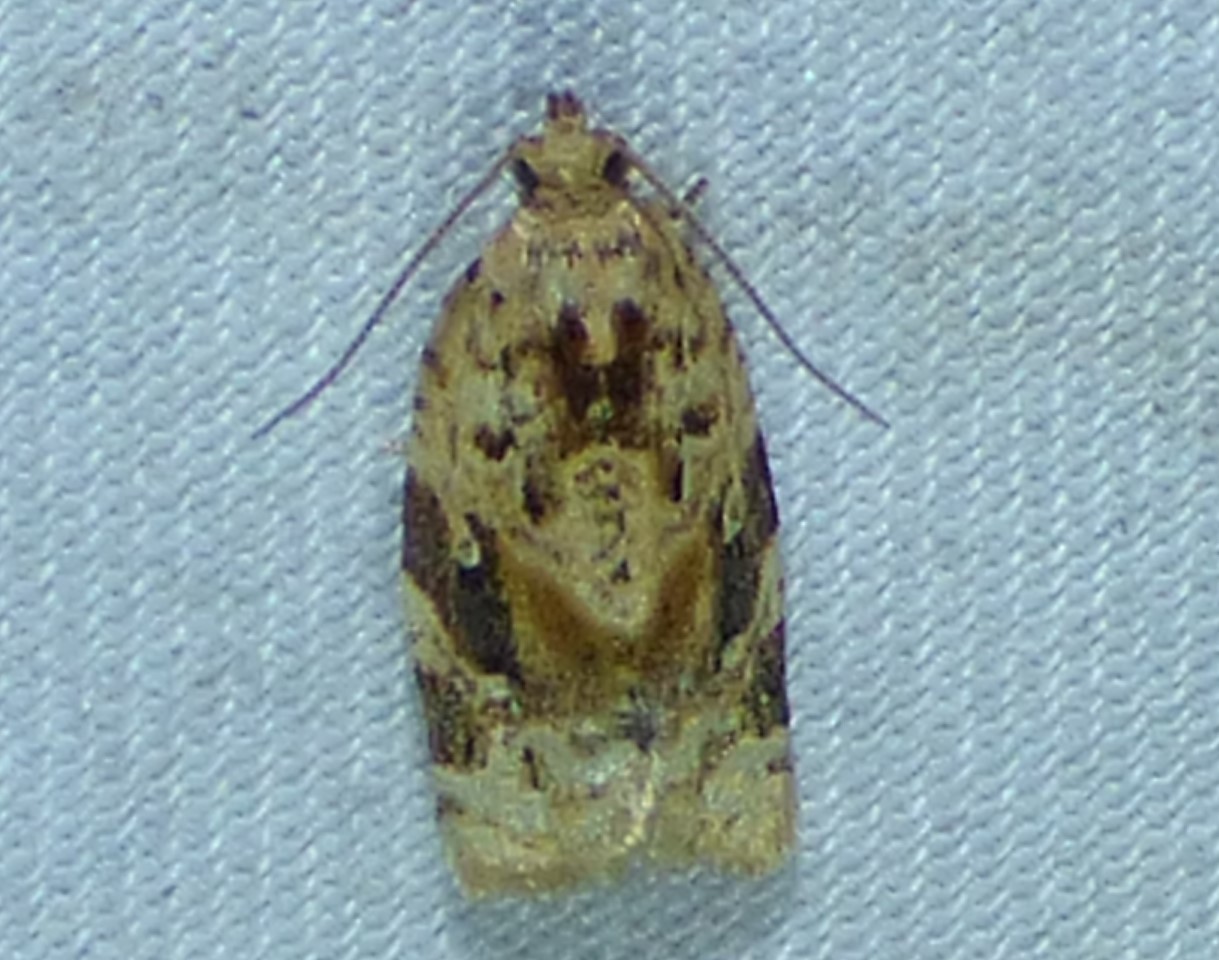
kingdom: Animalia
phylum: Arthropoda
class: Insecta
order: Lepidoptera
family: Tortricidae
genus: Argyrotaenia
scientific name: Argyrotaenia velutinana
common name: Red-banded leafroller moth
